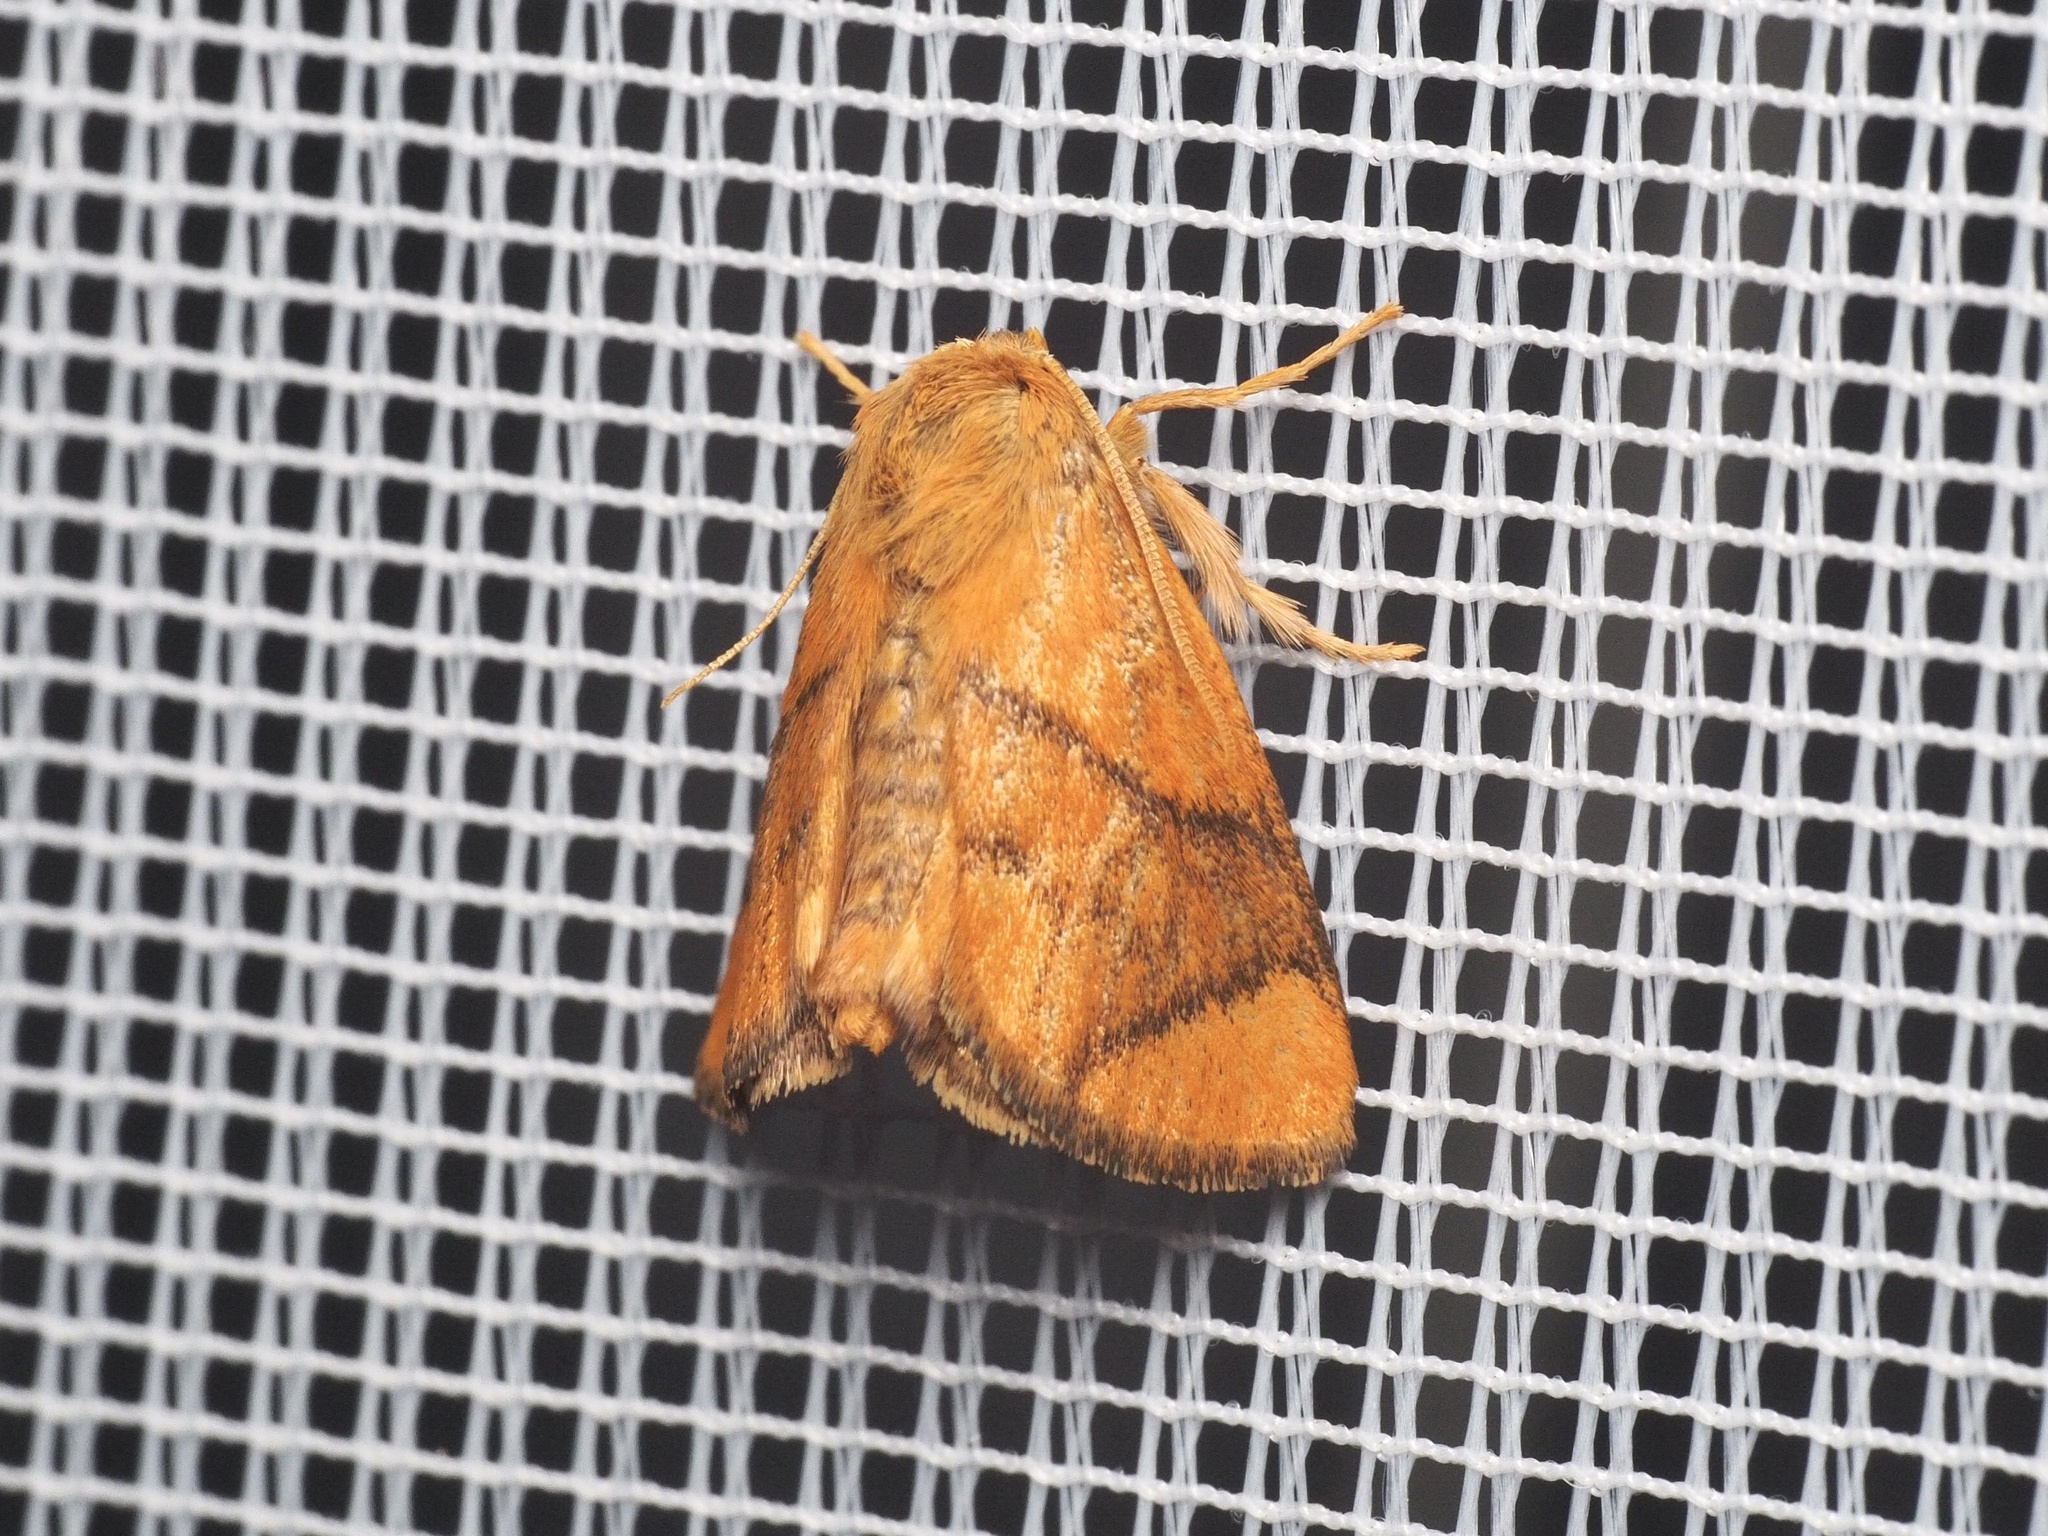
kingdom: Animalia
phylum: Arthropoda
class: Insecta
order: Lepidoptera
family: Limacodidae
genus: Apoda
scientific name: Apoda limacodes
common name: Festoon
